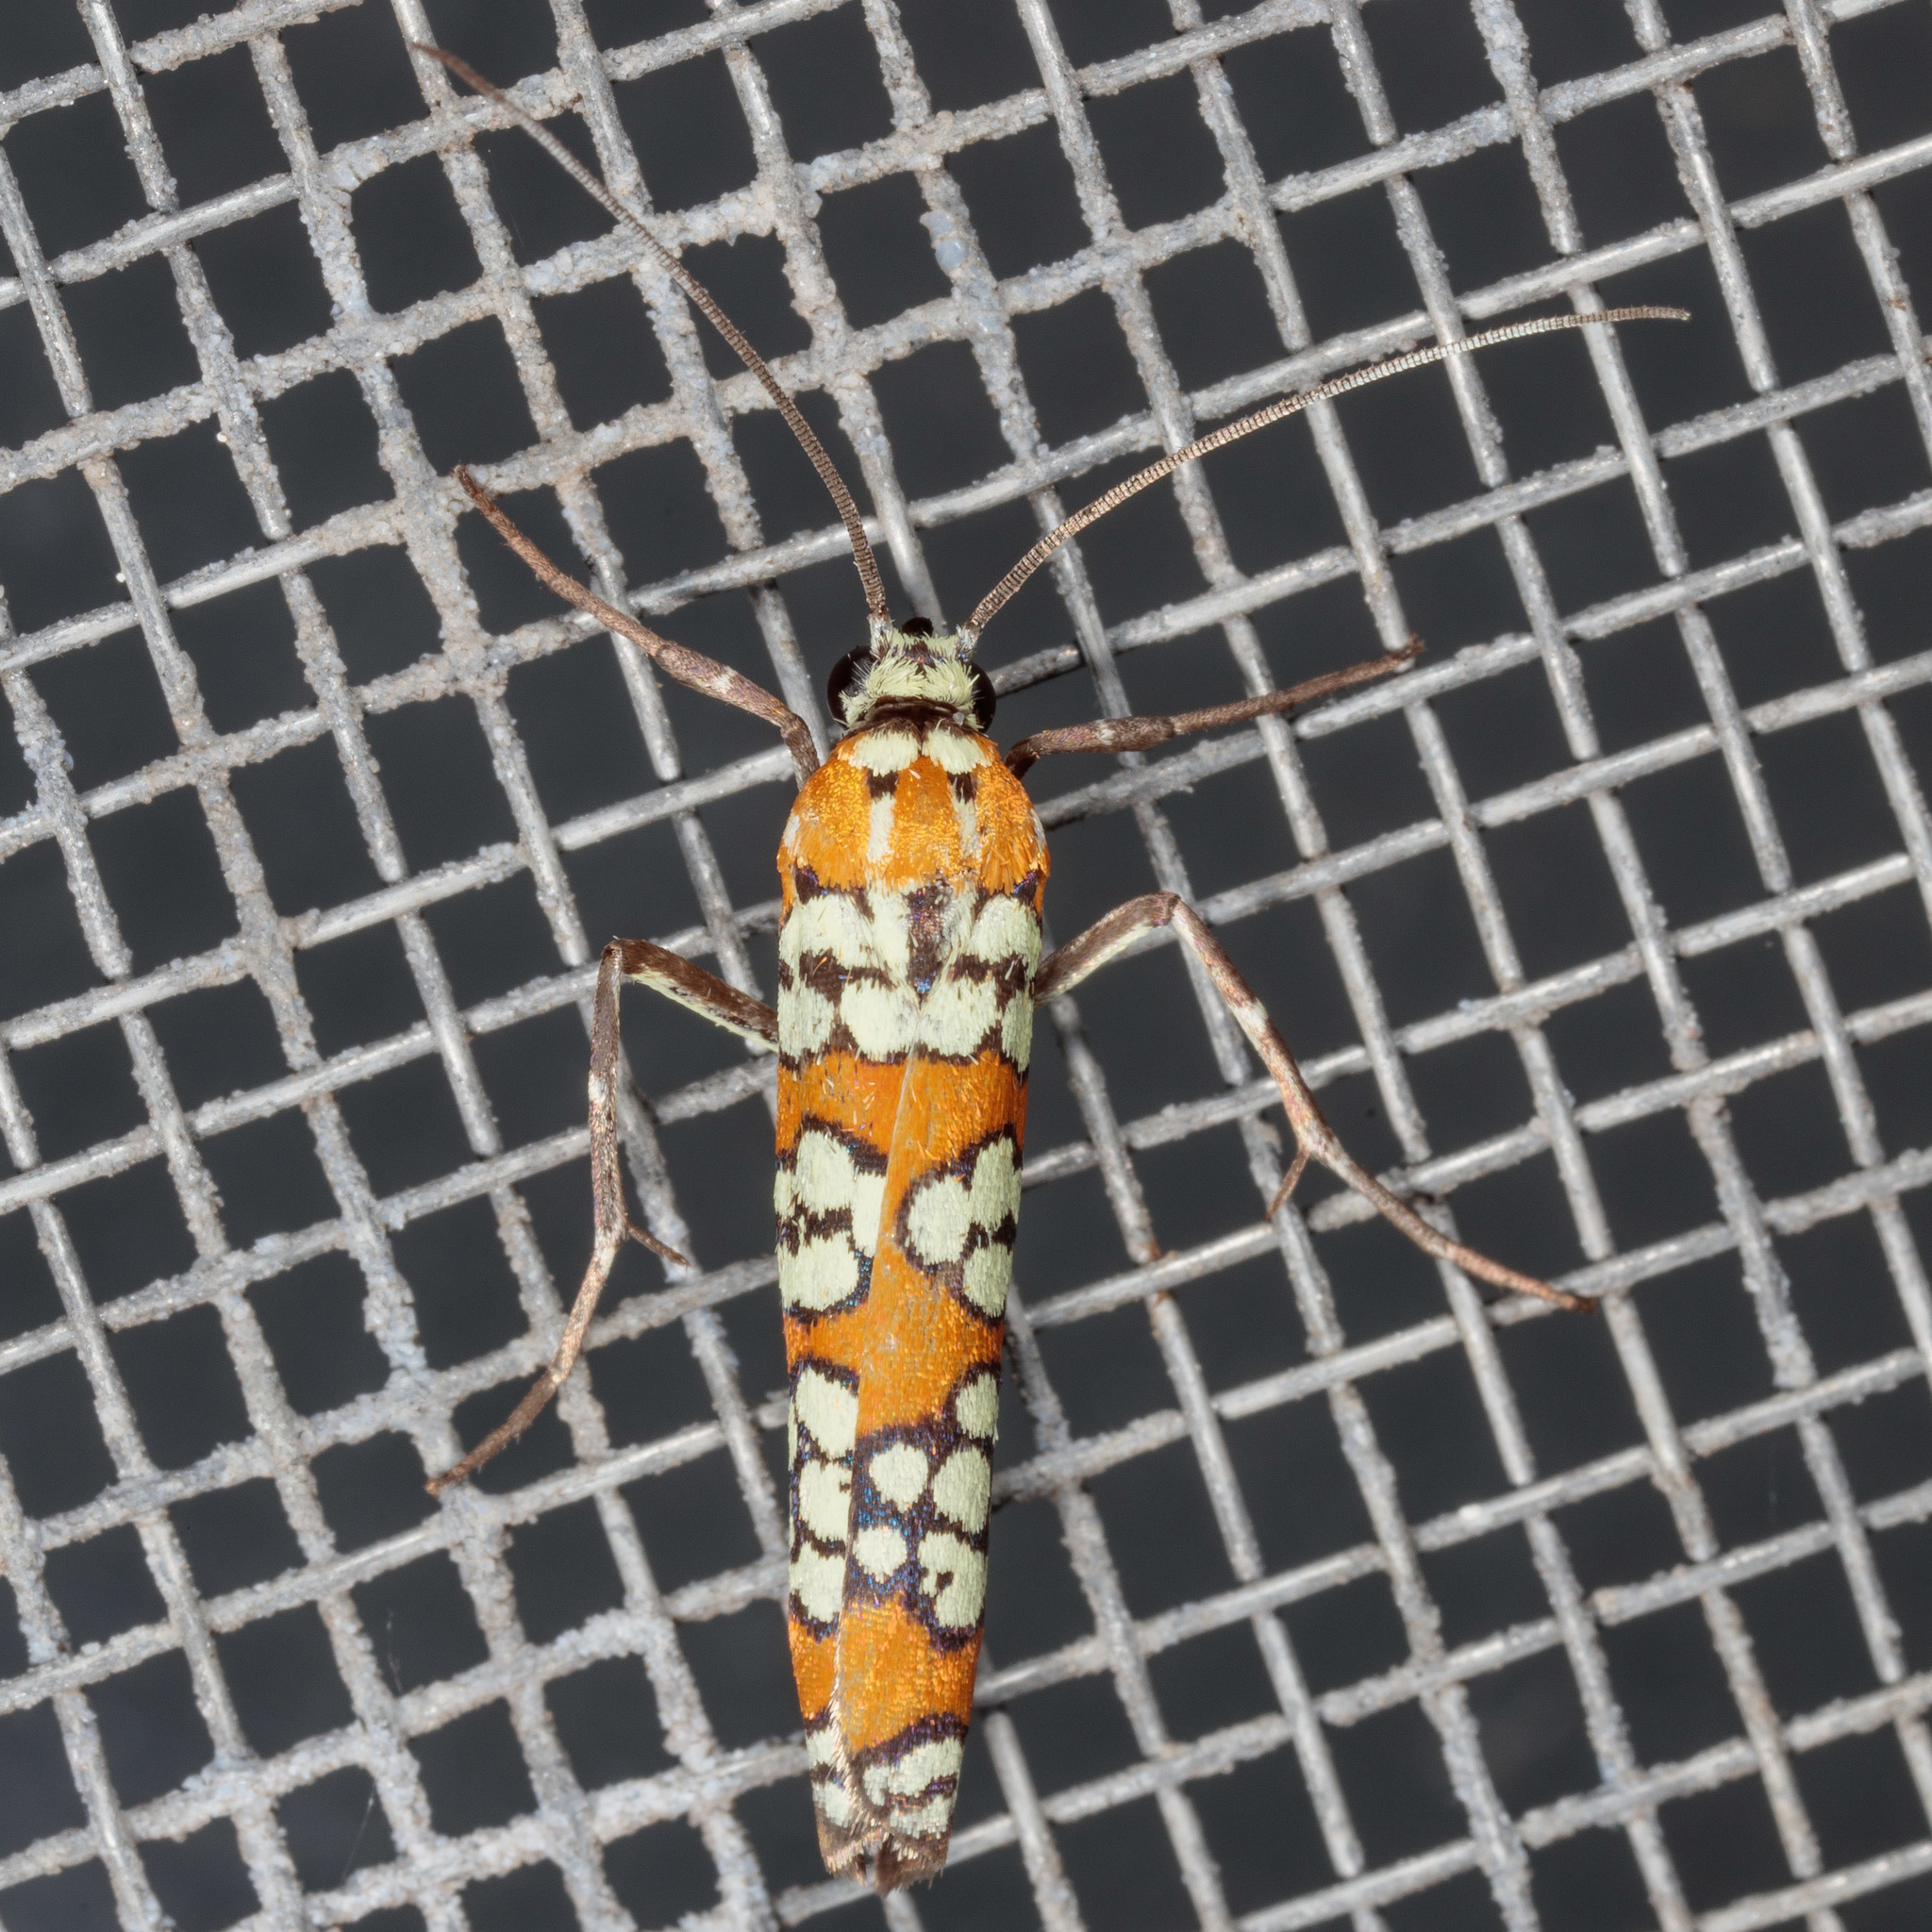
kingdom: Animalia
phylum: Arthropoda
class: Insecta
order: Lepidoptera
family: Attevidae
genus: Atteva
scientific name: Atteva punctella
